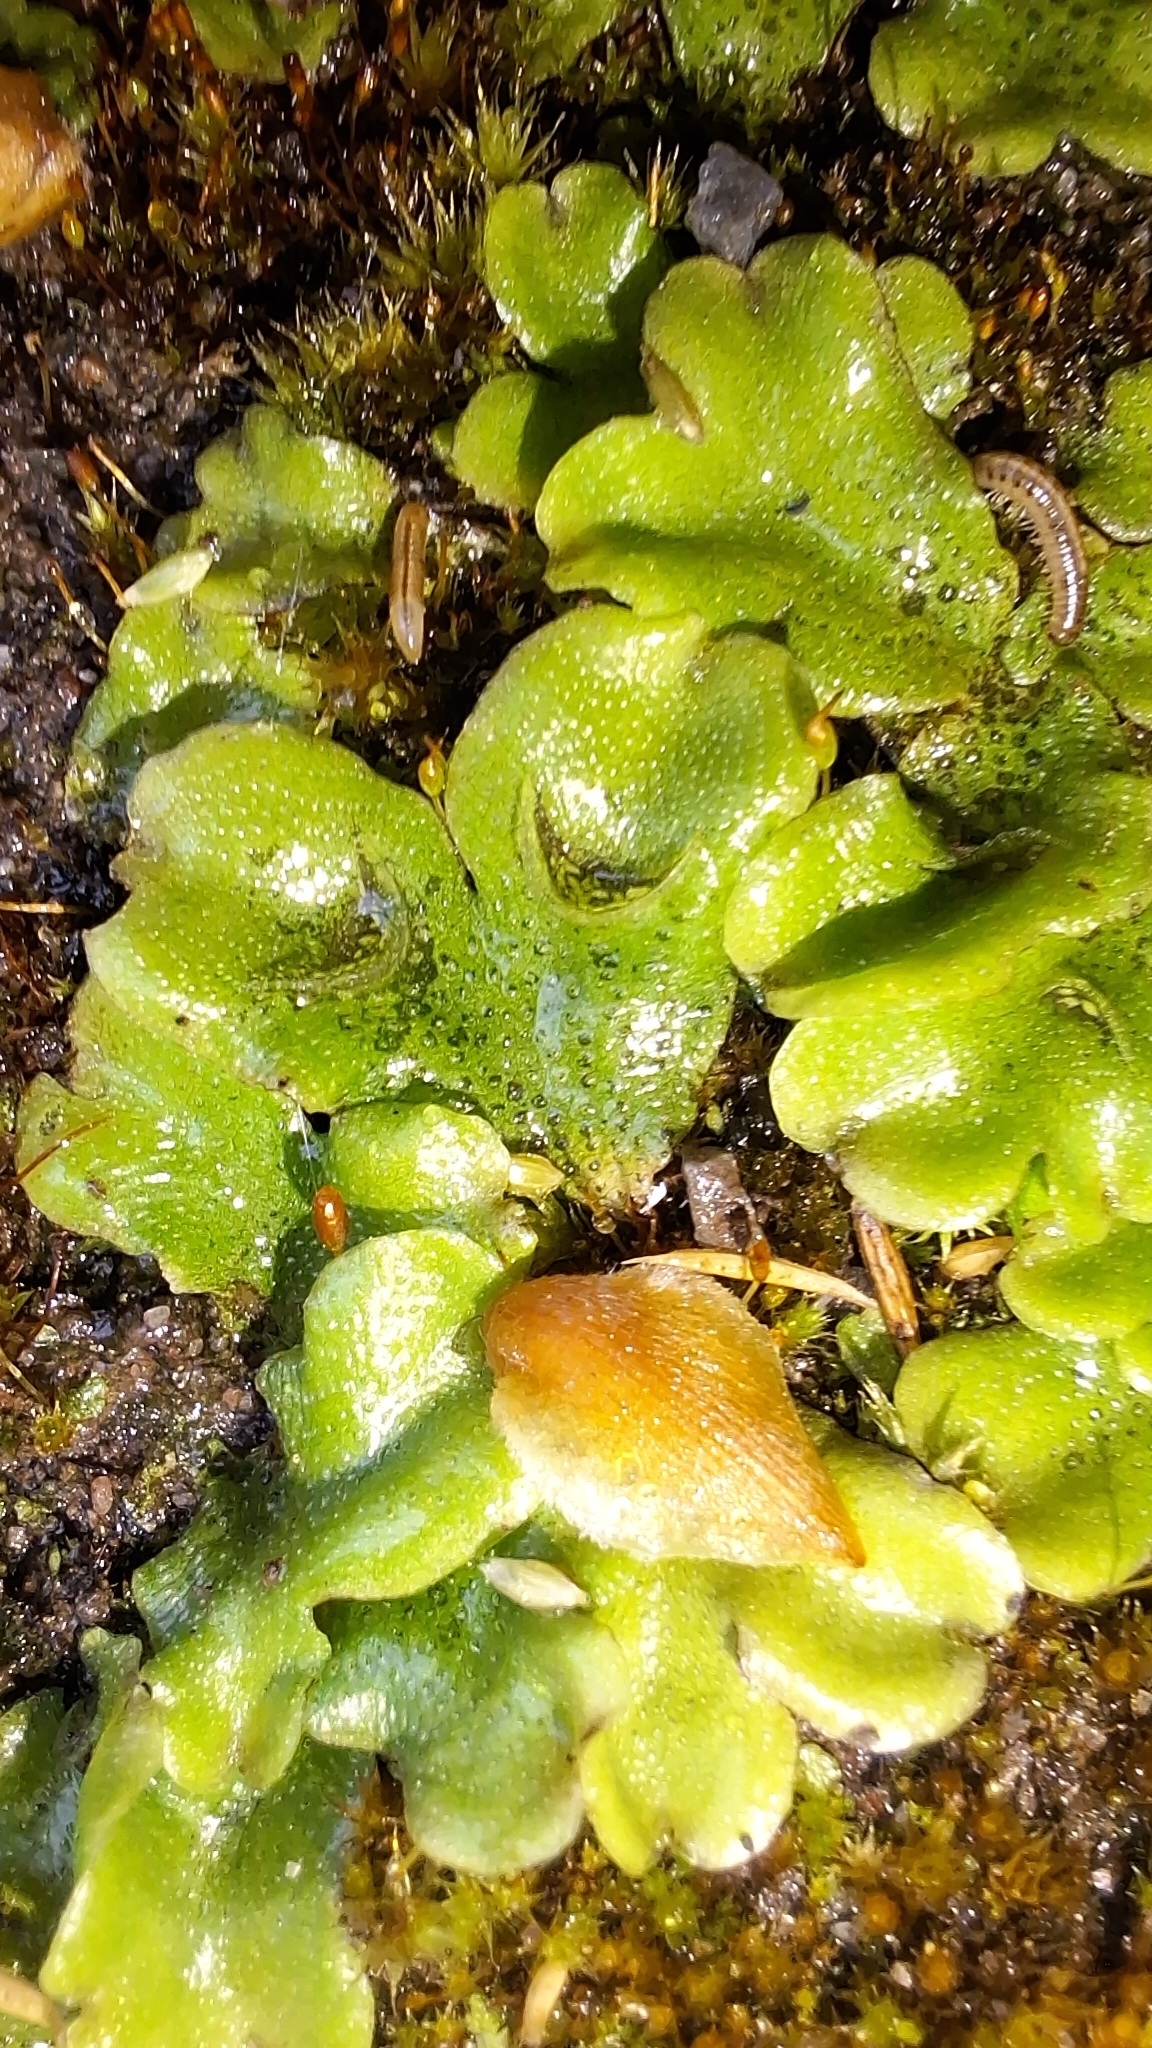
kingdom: Plantae
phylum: Marchantiophyta
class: Marchantiopsida
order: Lunulariales
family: Lunulariaceae
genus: Lunularia
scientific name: Lunularia cruciata
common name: Crescent-cup liverwort
